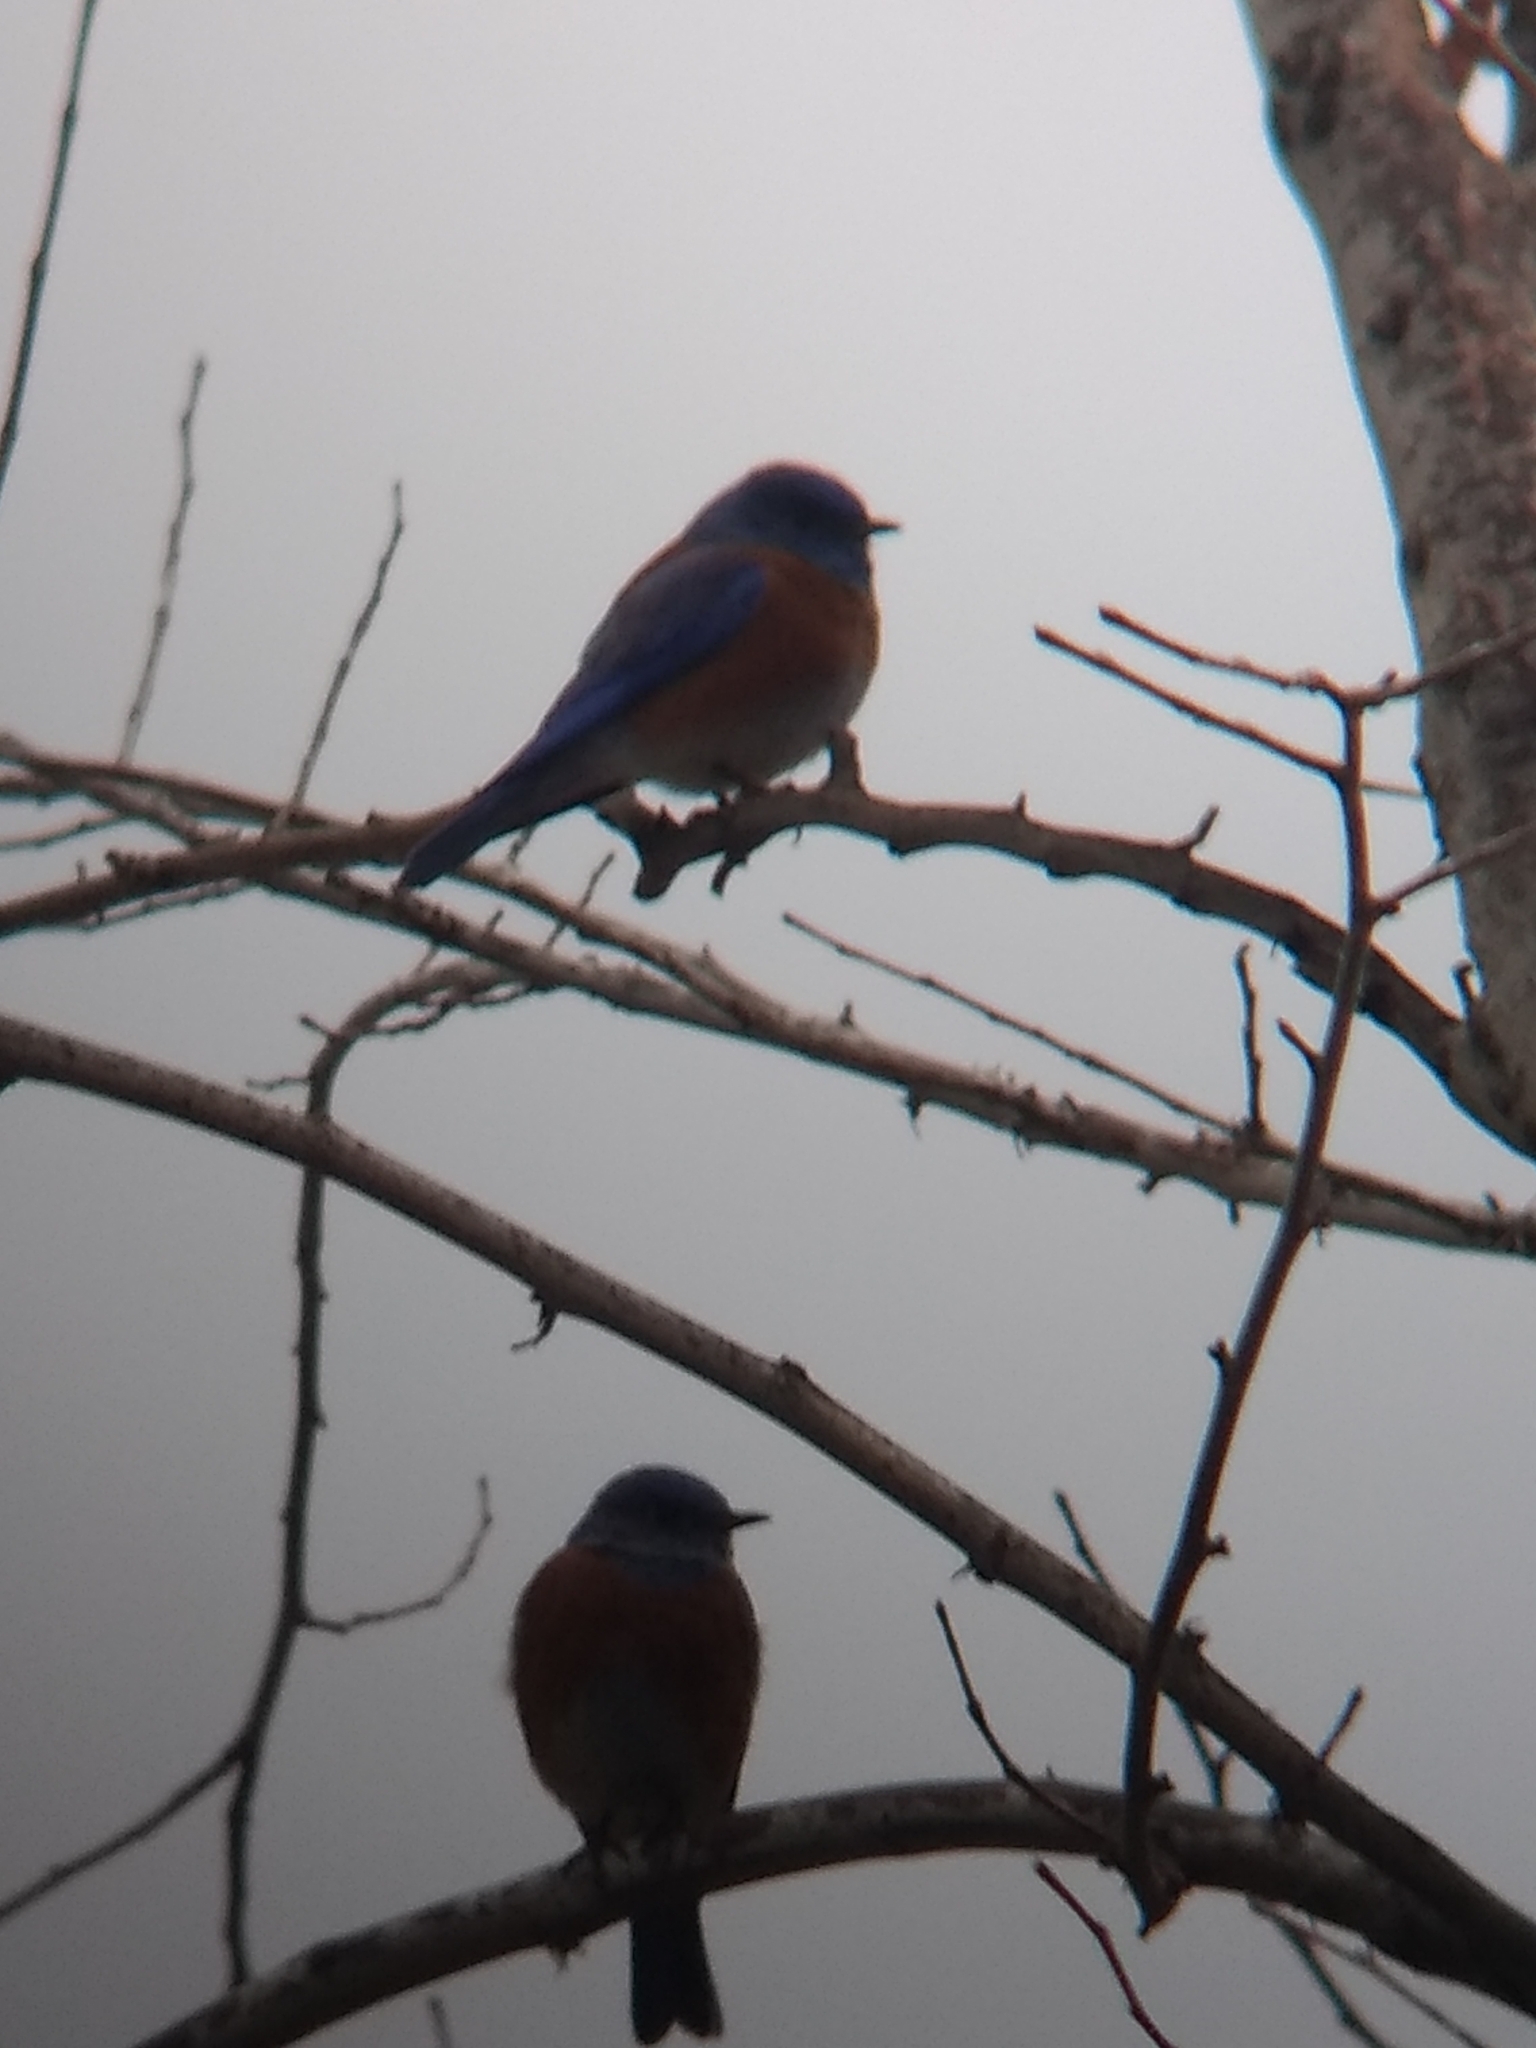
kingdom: Animalia
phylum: Chordata
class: Aves
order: Passeriformes
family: Turdidae
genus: Sialia
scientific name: Sialia mexicana
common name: Western bluebird
